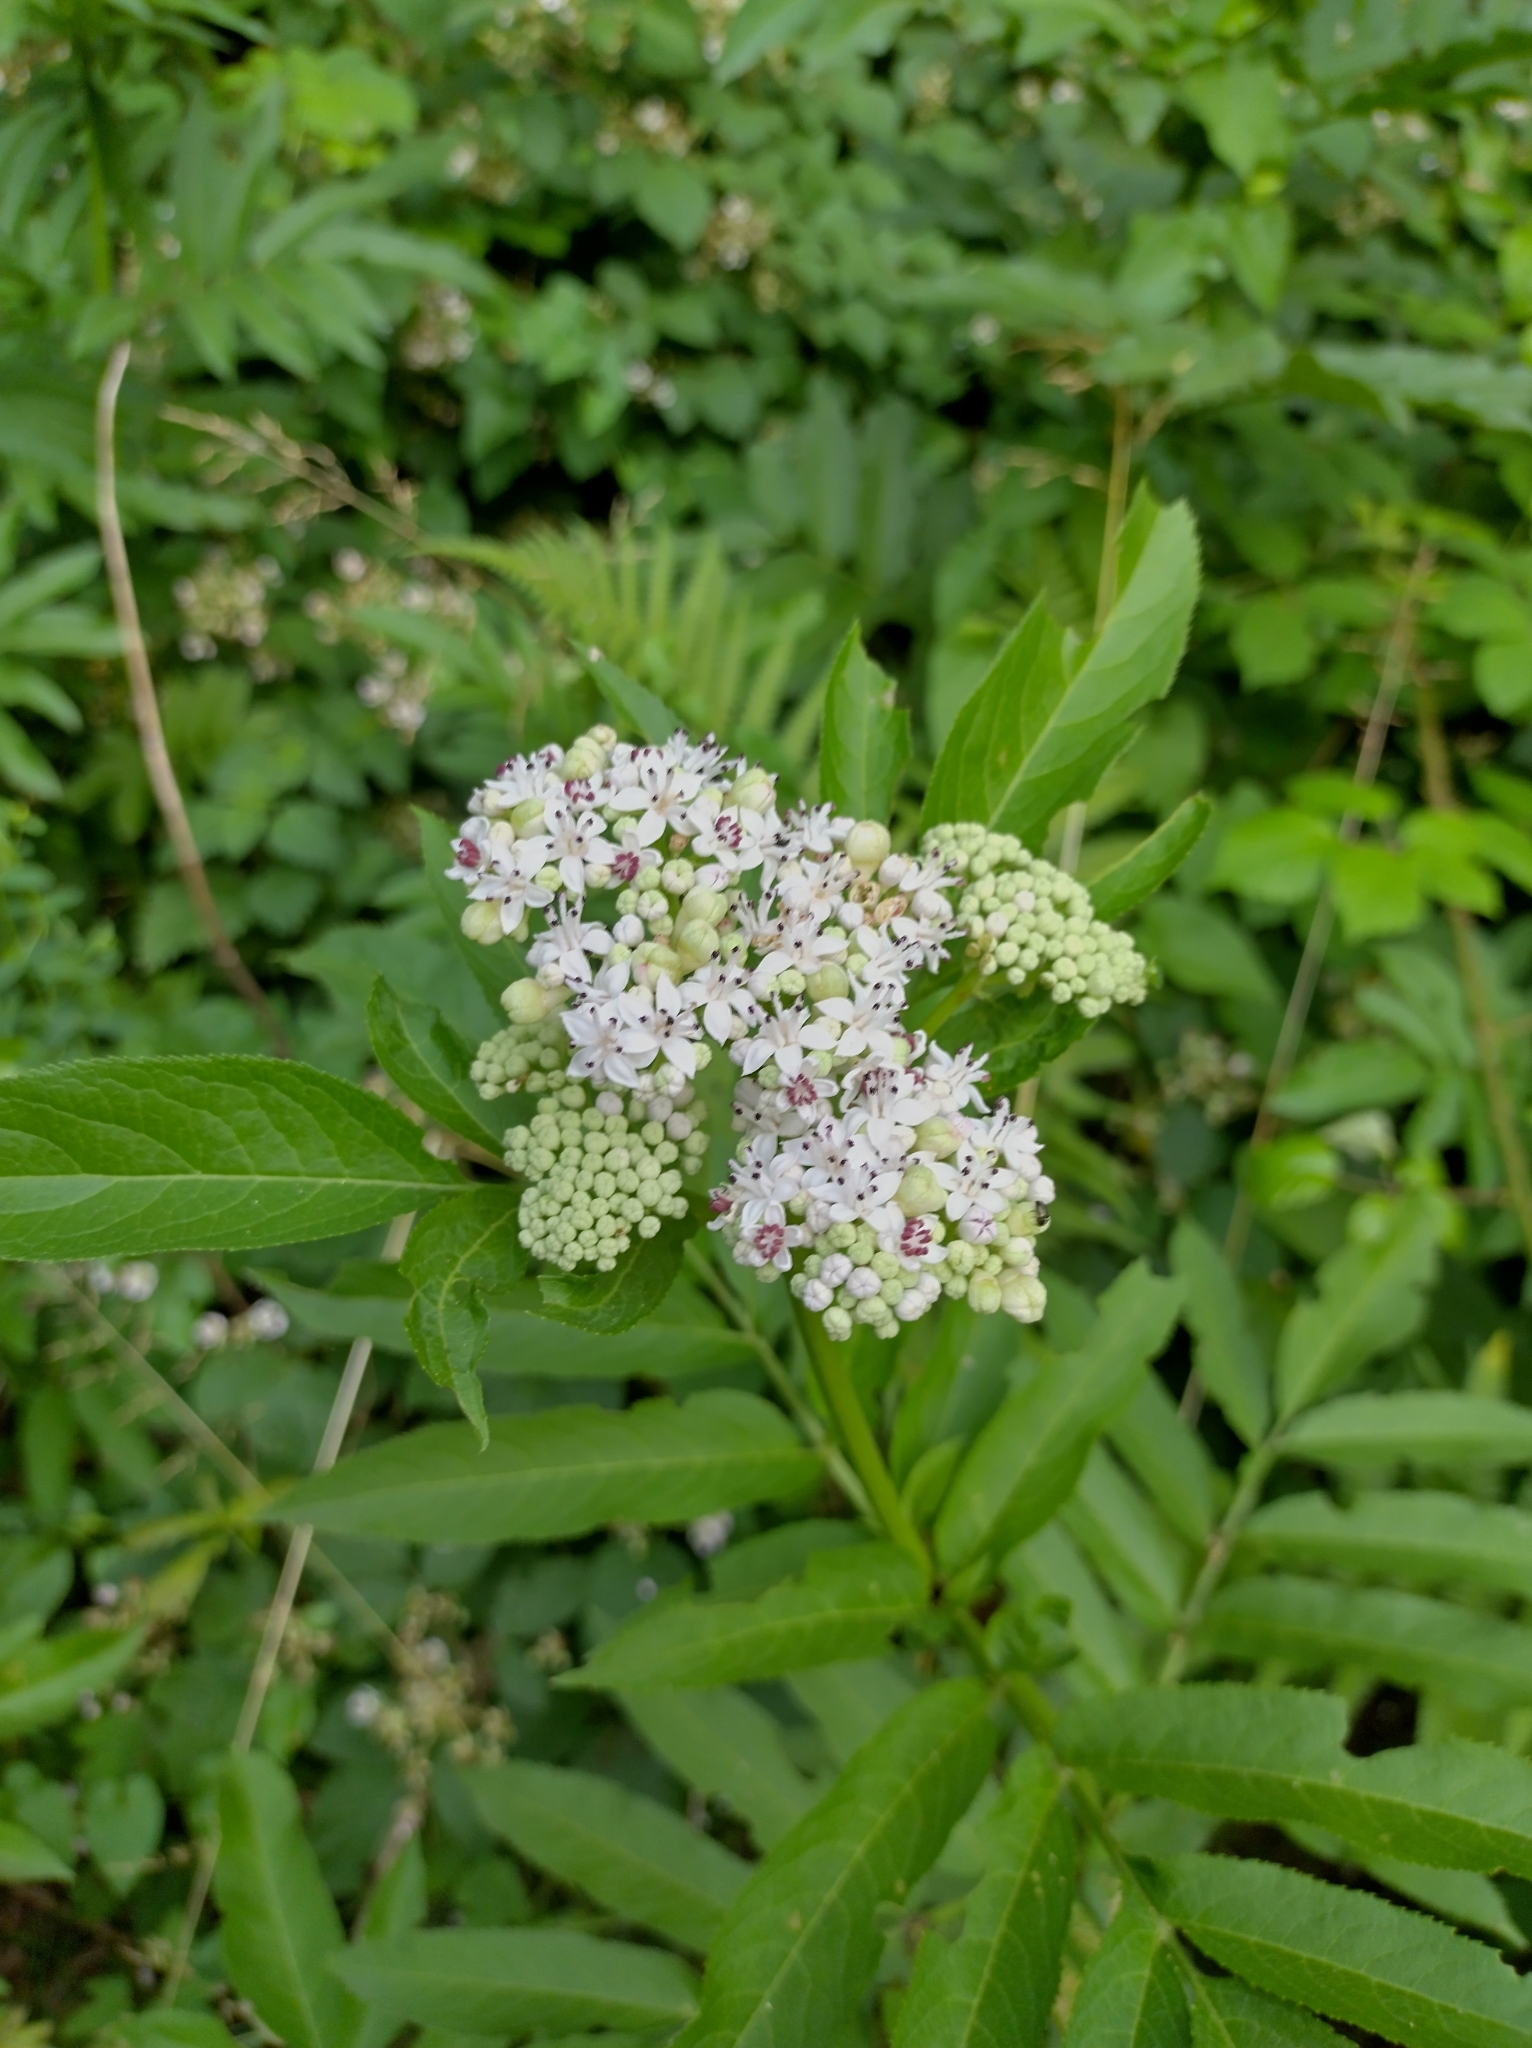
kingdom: Plantae
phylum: Tracheophyta
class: Magnoliopsida
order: Dipsacales
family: Viburnaceae
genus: Sambucus
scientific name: Sambucus ebulus
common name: Dwarf elder
